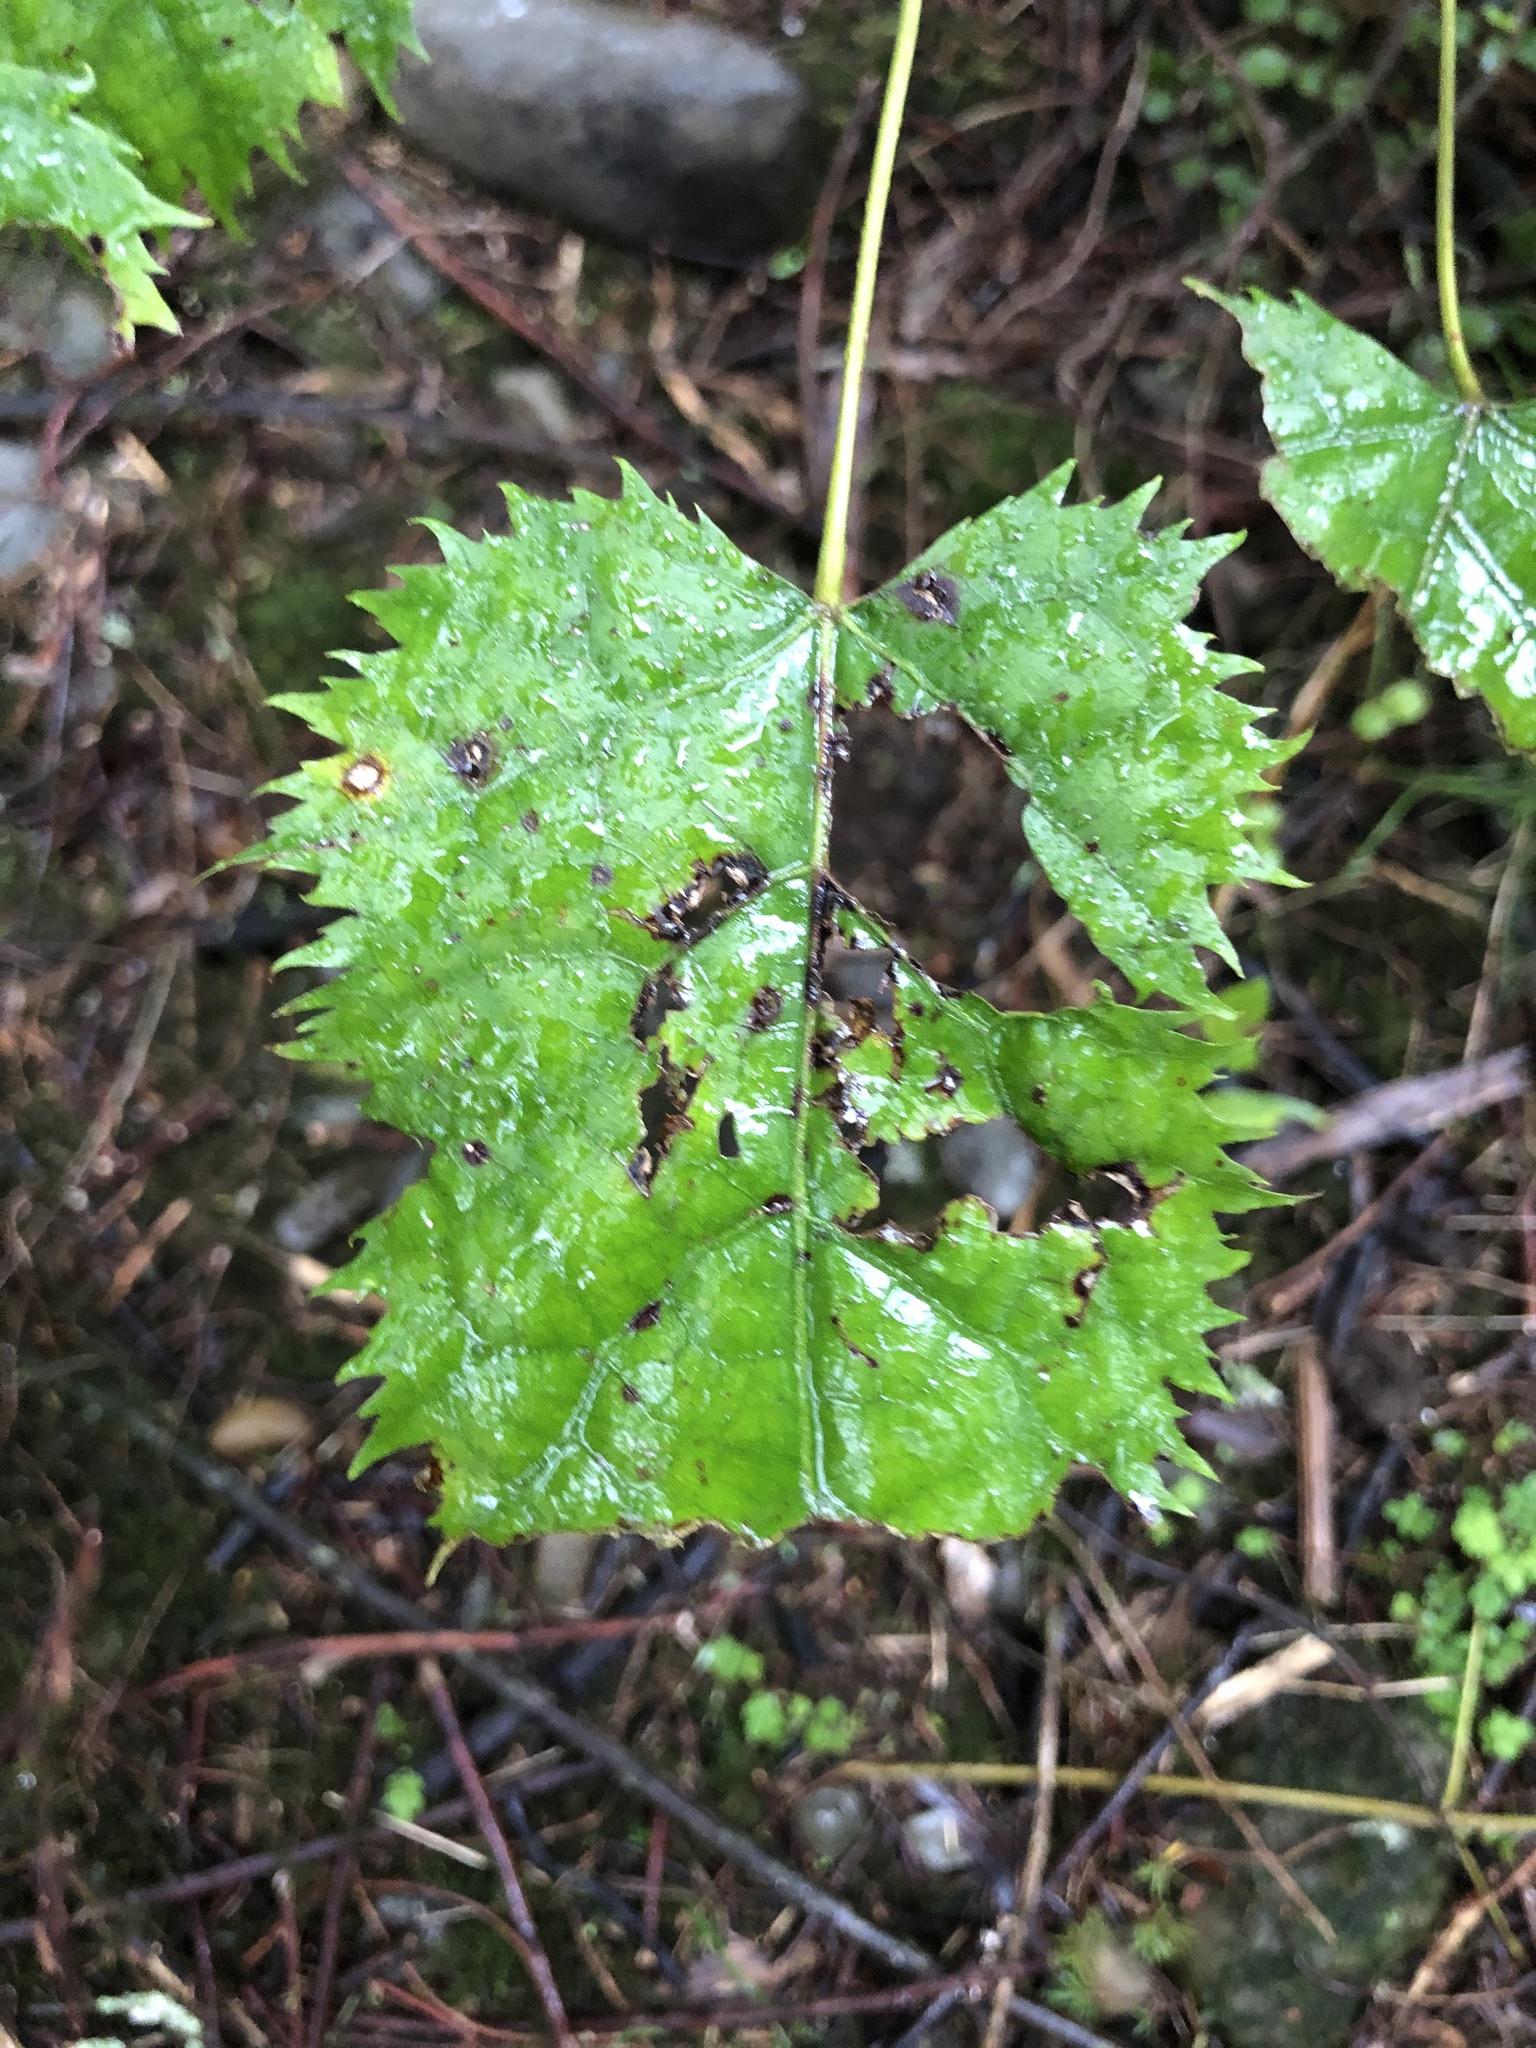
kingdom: Plantae
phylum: Tracheophyta
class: Magnoliopsida
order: Oxalidales
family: Elaeocarpaceae
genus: Aristotelia
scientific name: Aristotelia serrata
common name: New zealand wineberry
